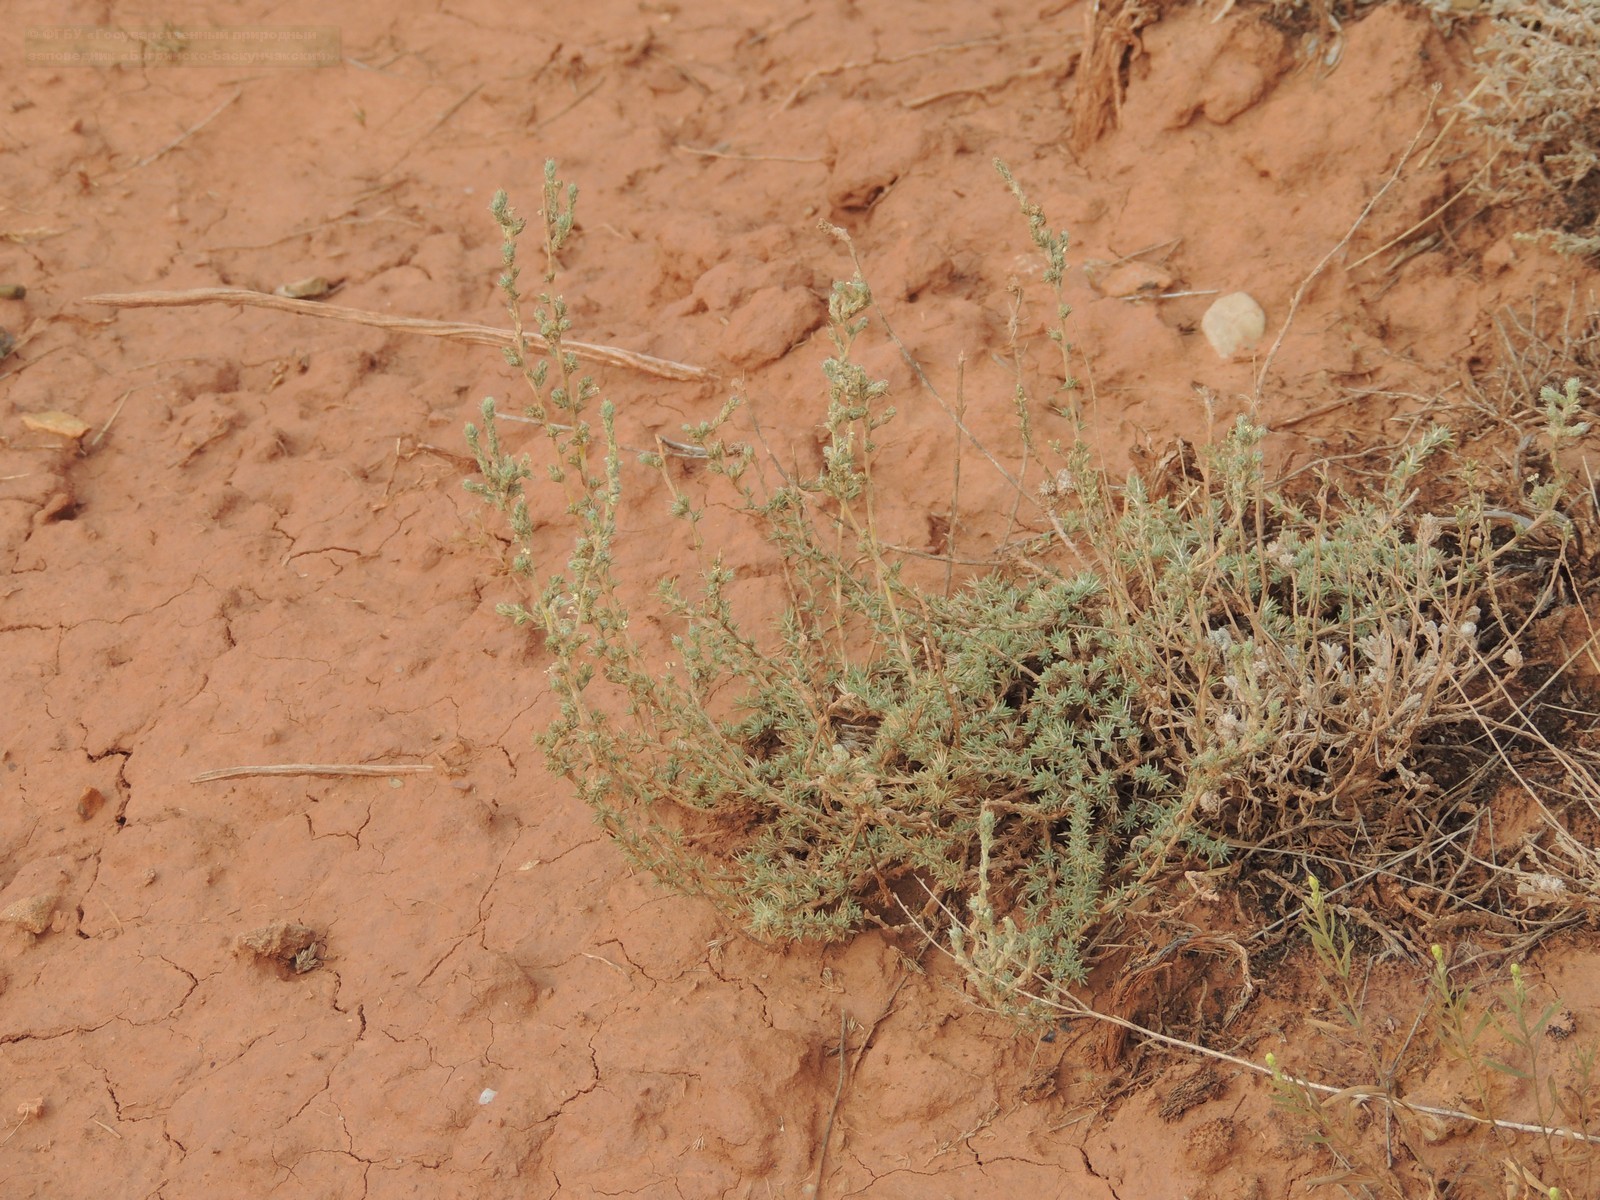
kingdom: Plantae
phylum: Tracheophyta
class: Magnoliopsida
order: Caryophyllales
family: Amaranthaceae
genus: Camphorosma
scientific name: Camphorosma monspeliaca
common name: Camphorfume
